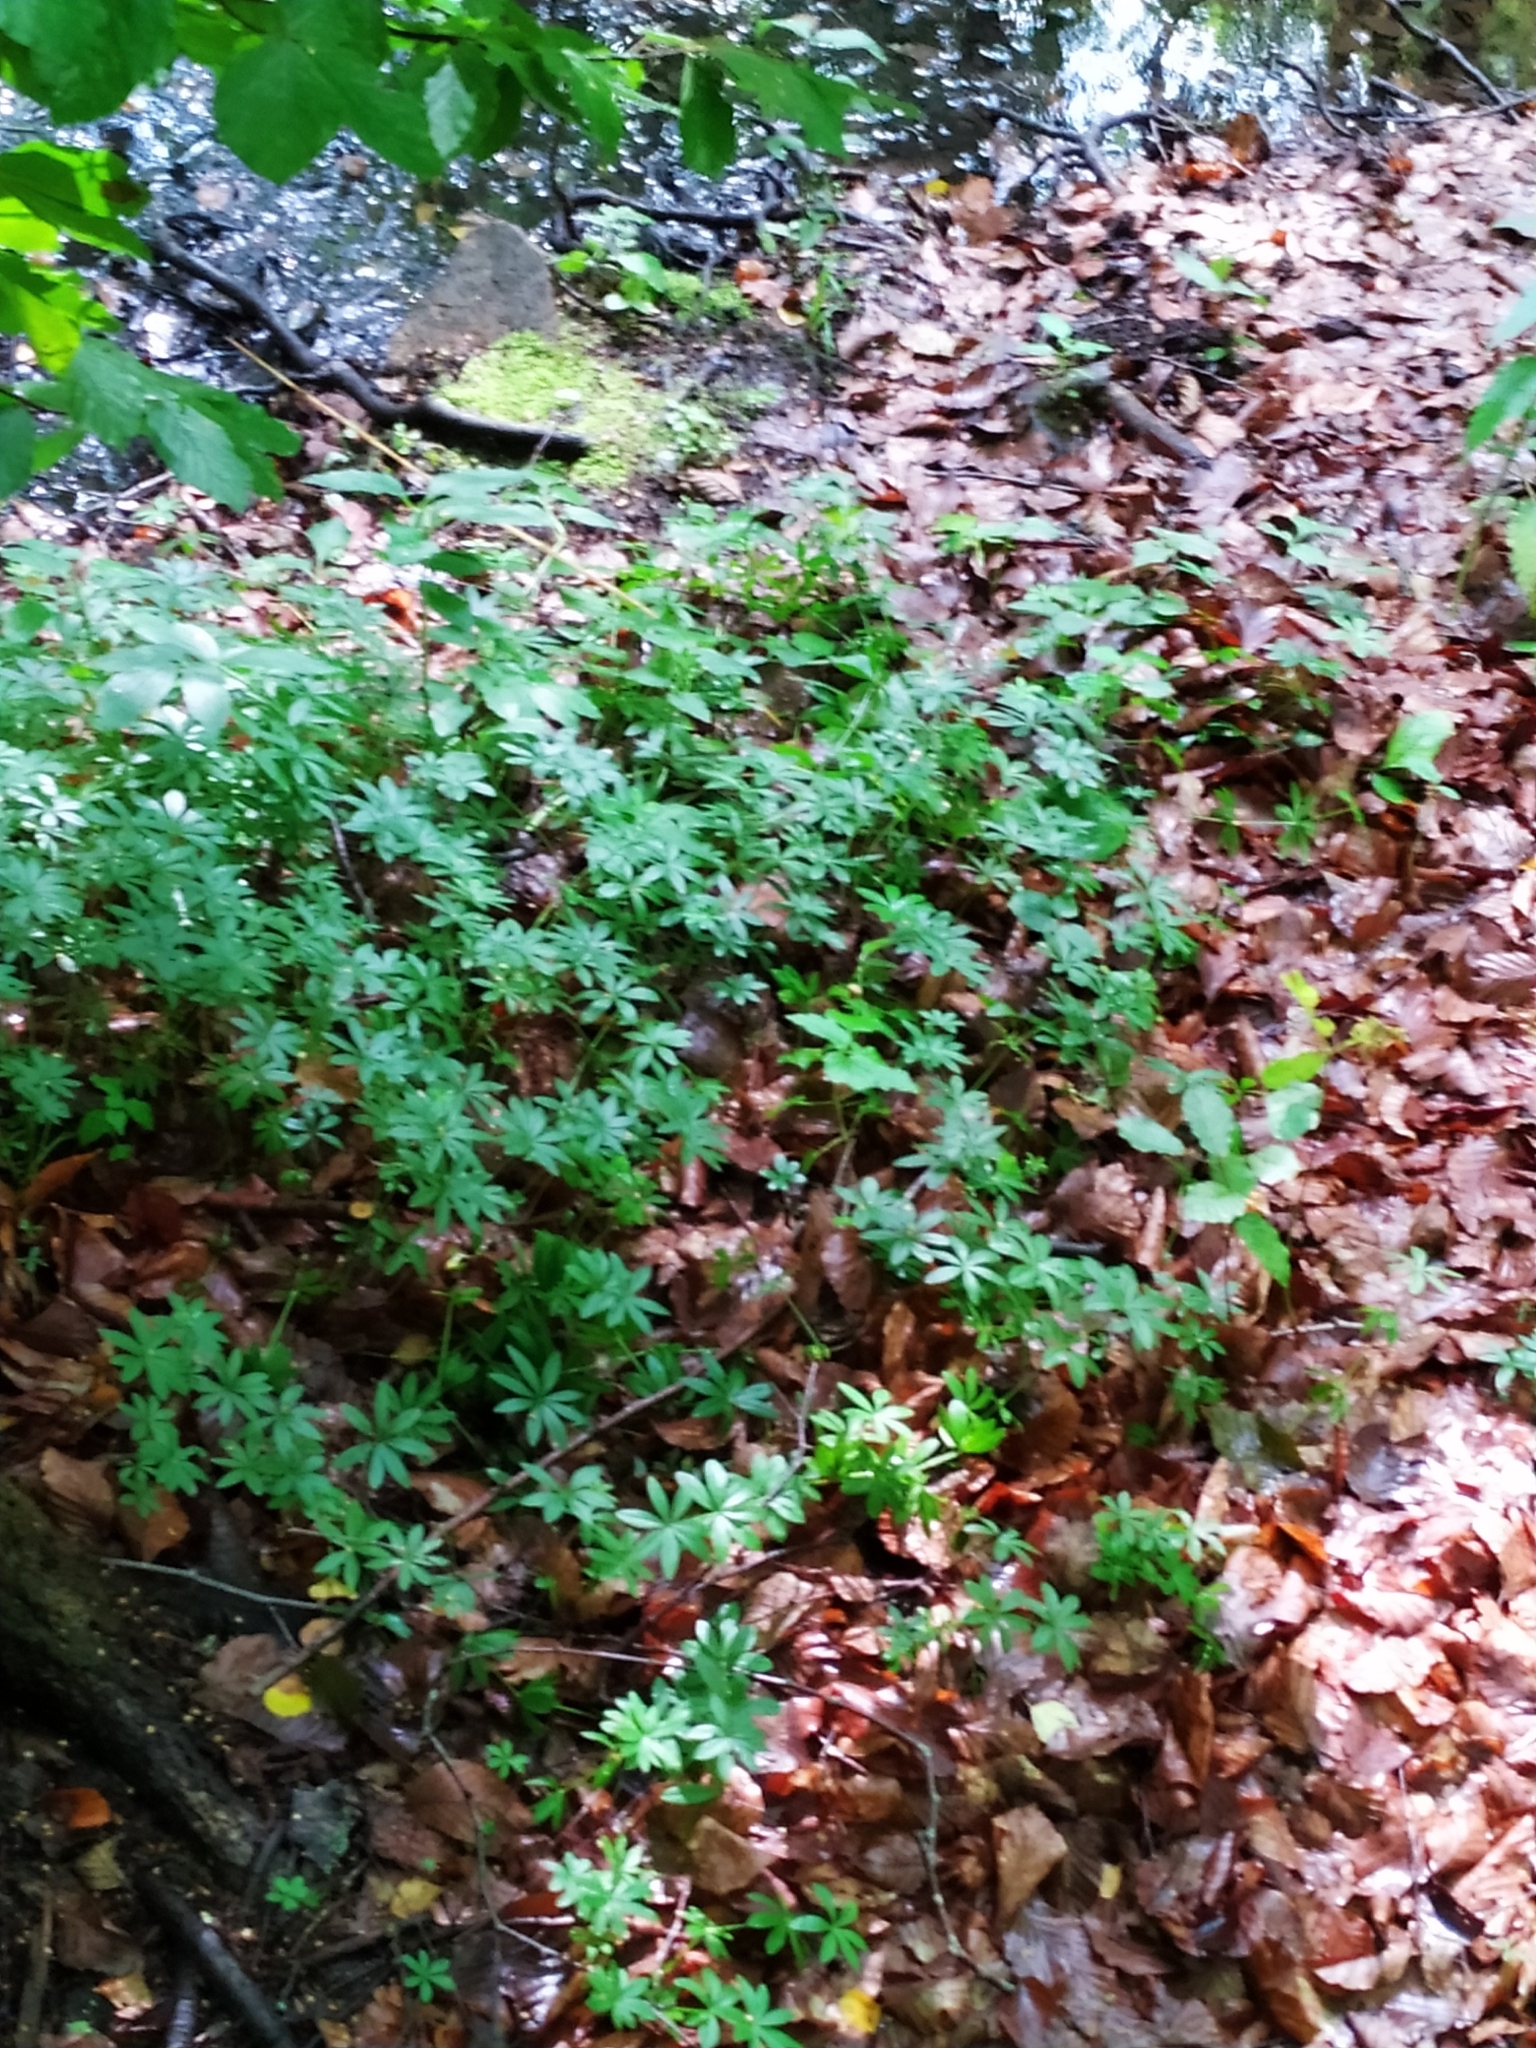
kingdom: Plantae
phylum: Tracheophyta
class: Magnoliopsida
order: Gentianales
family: Rubiaceae
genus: Galium
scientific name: Galium odoratum
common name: Sweet woodruff
